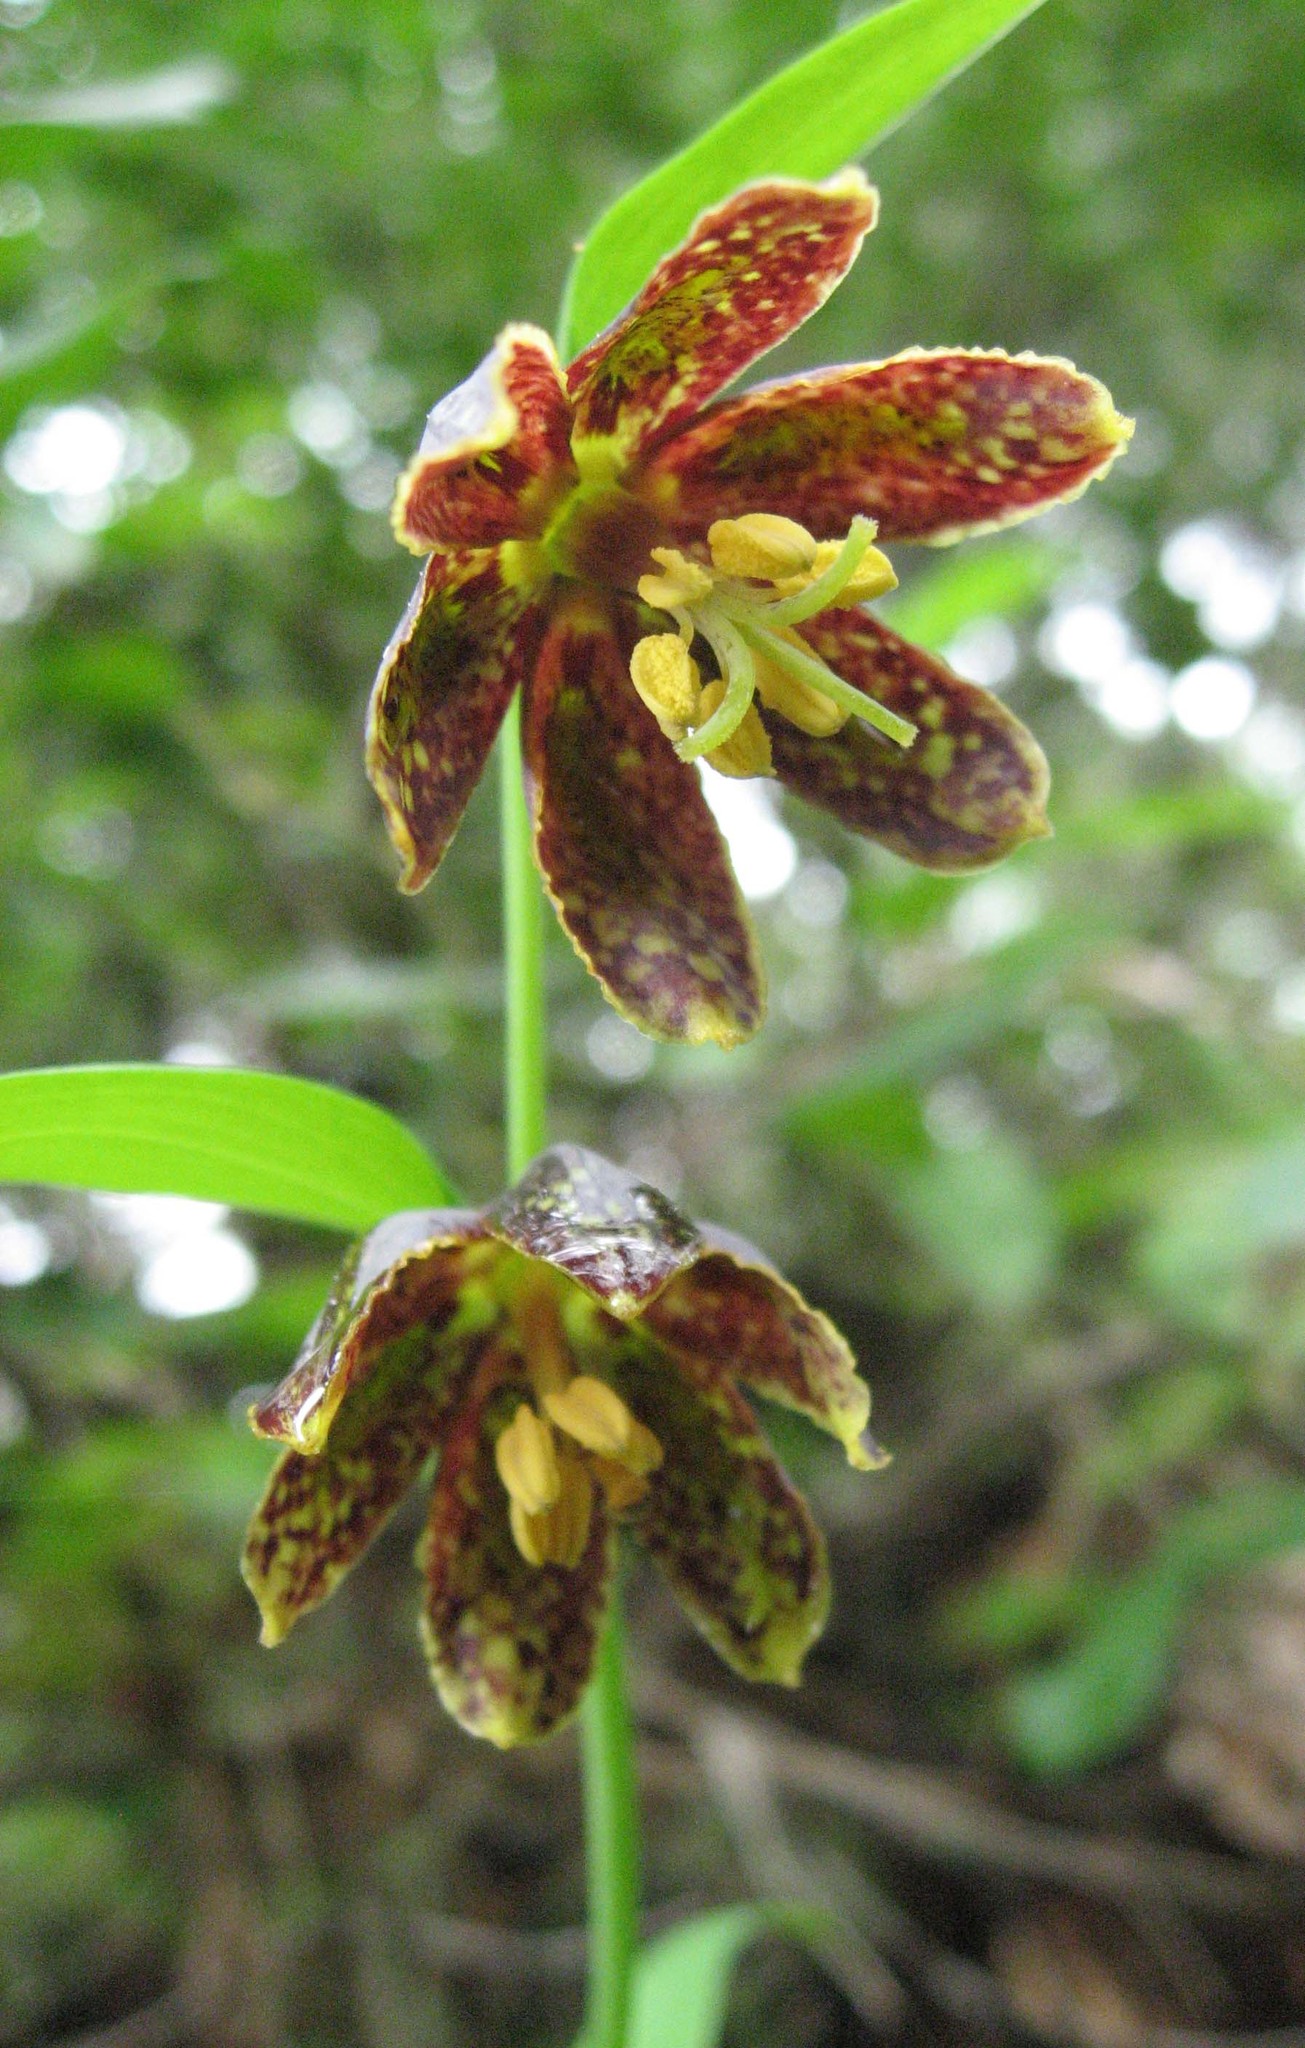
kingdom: Plantae
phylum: Tracheophyta
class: Liliopsida
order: Liliales
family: Liliaceae
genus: Fritillaria
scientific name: Fritillaria affinis
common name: Ojai fritillary
